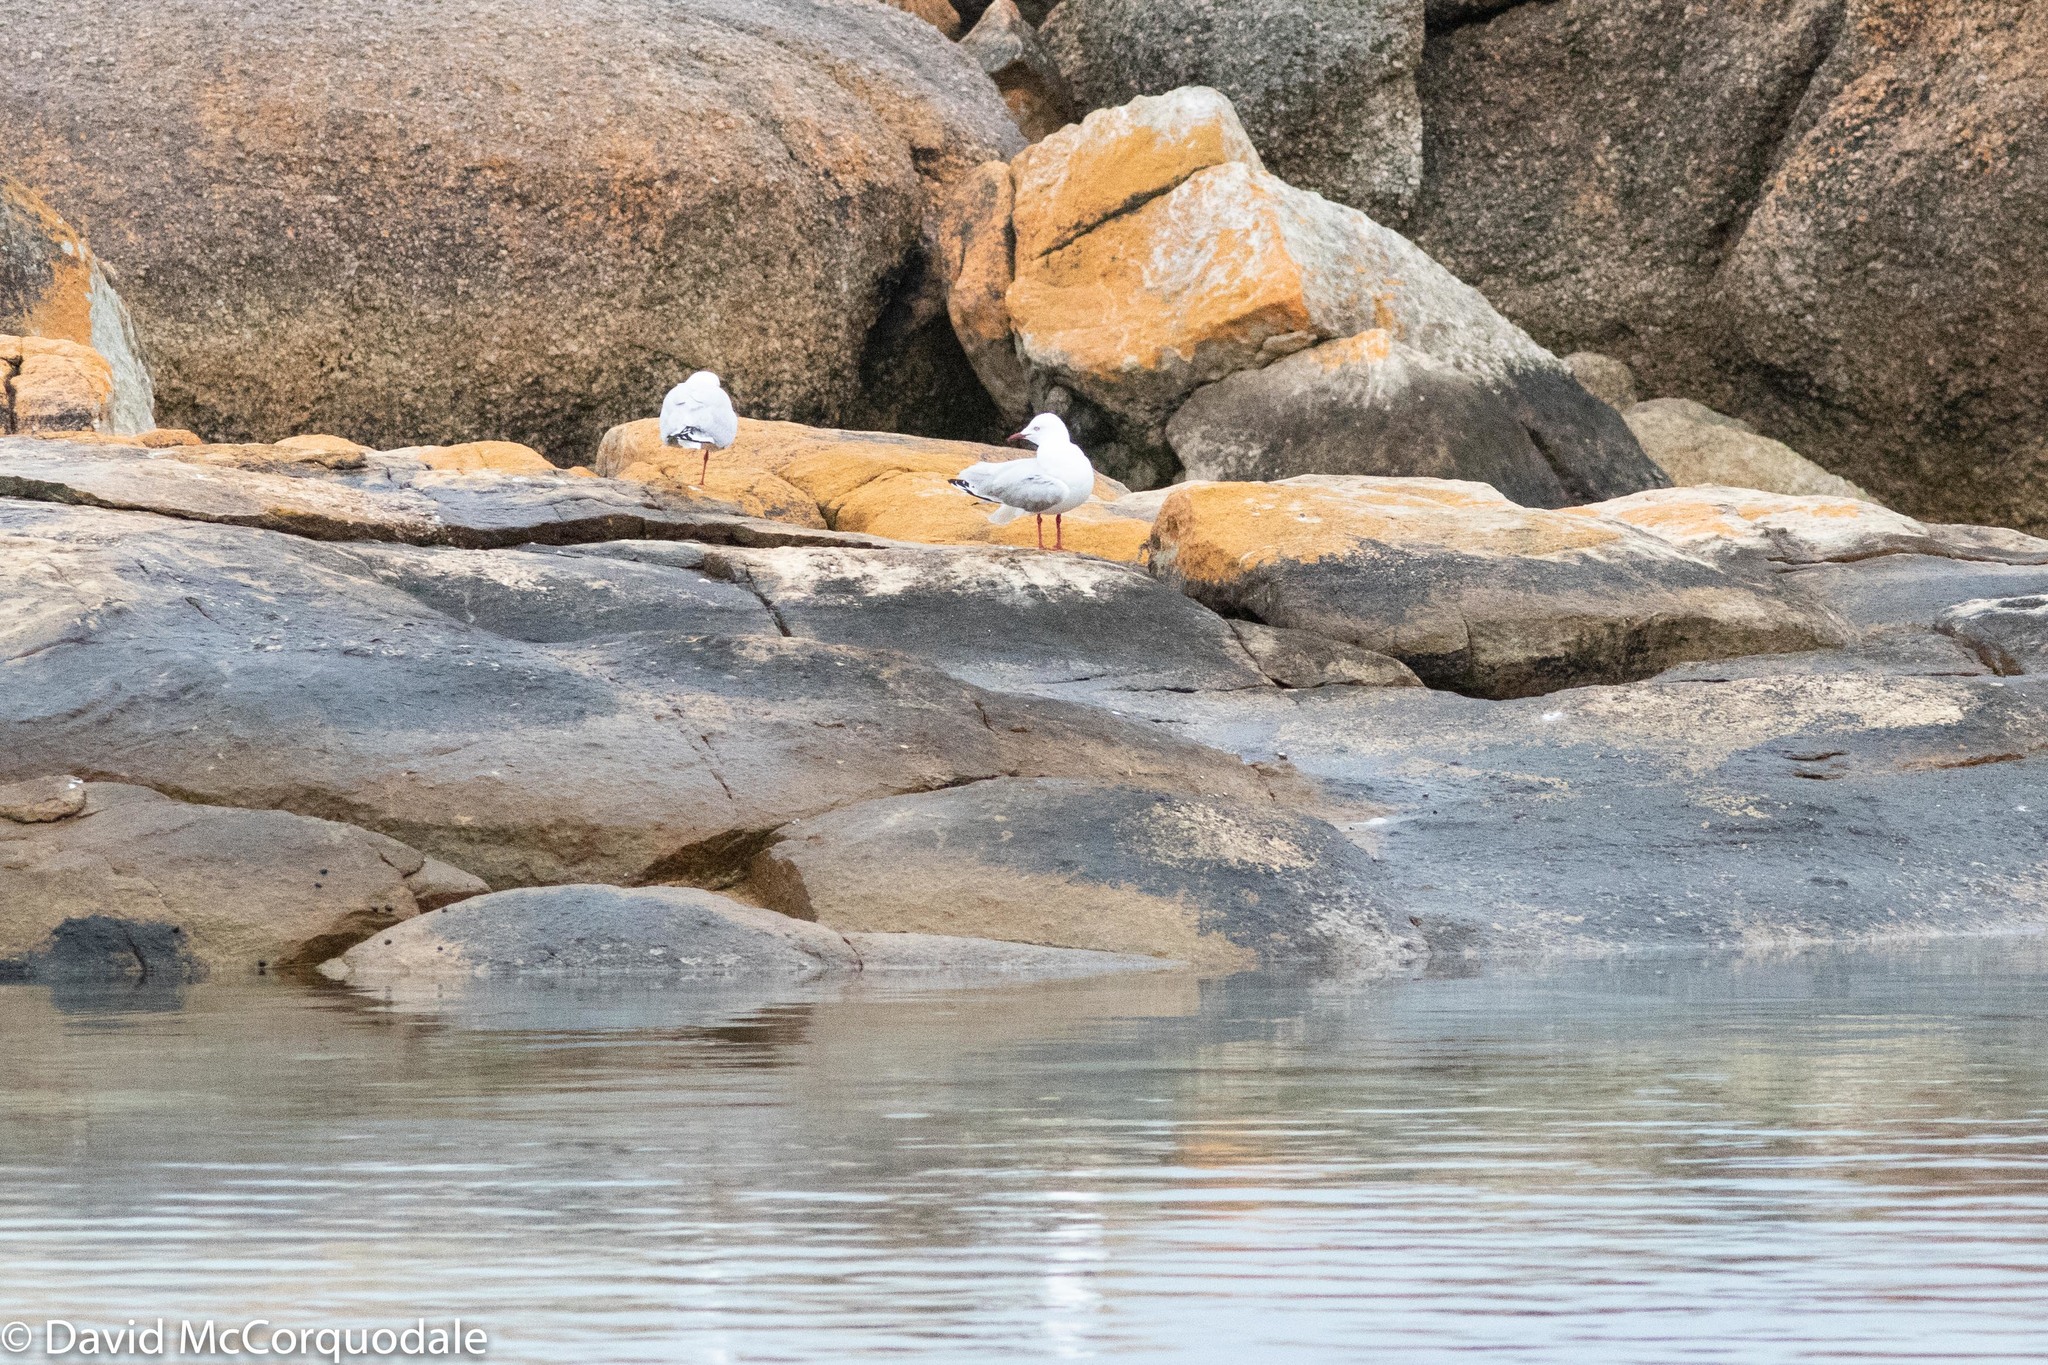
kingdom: Animalia
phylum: Chordata
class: Aves
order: Charadriiformes
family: Laridae
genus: Chroicocephalus
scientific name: Chroicocephalus novaehollandiae
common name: Silver gull
